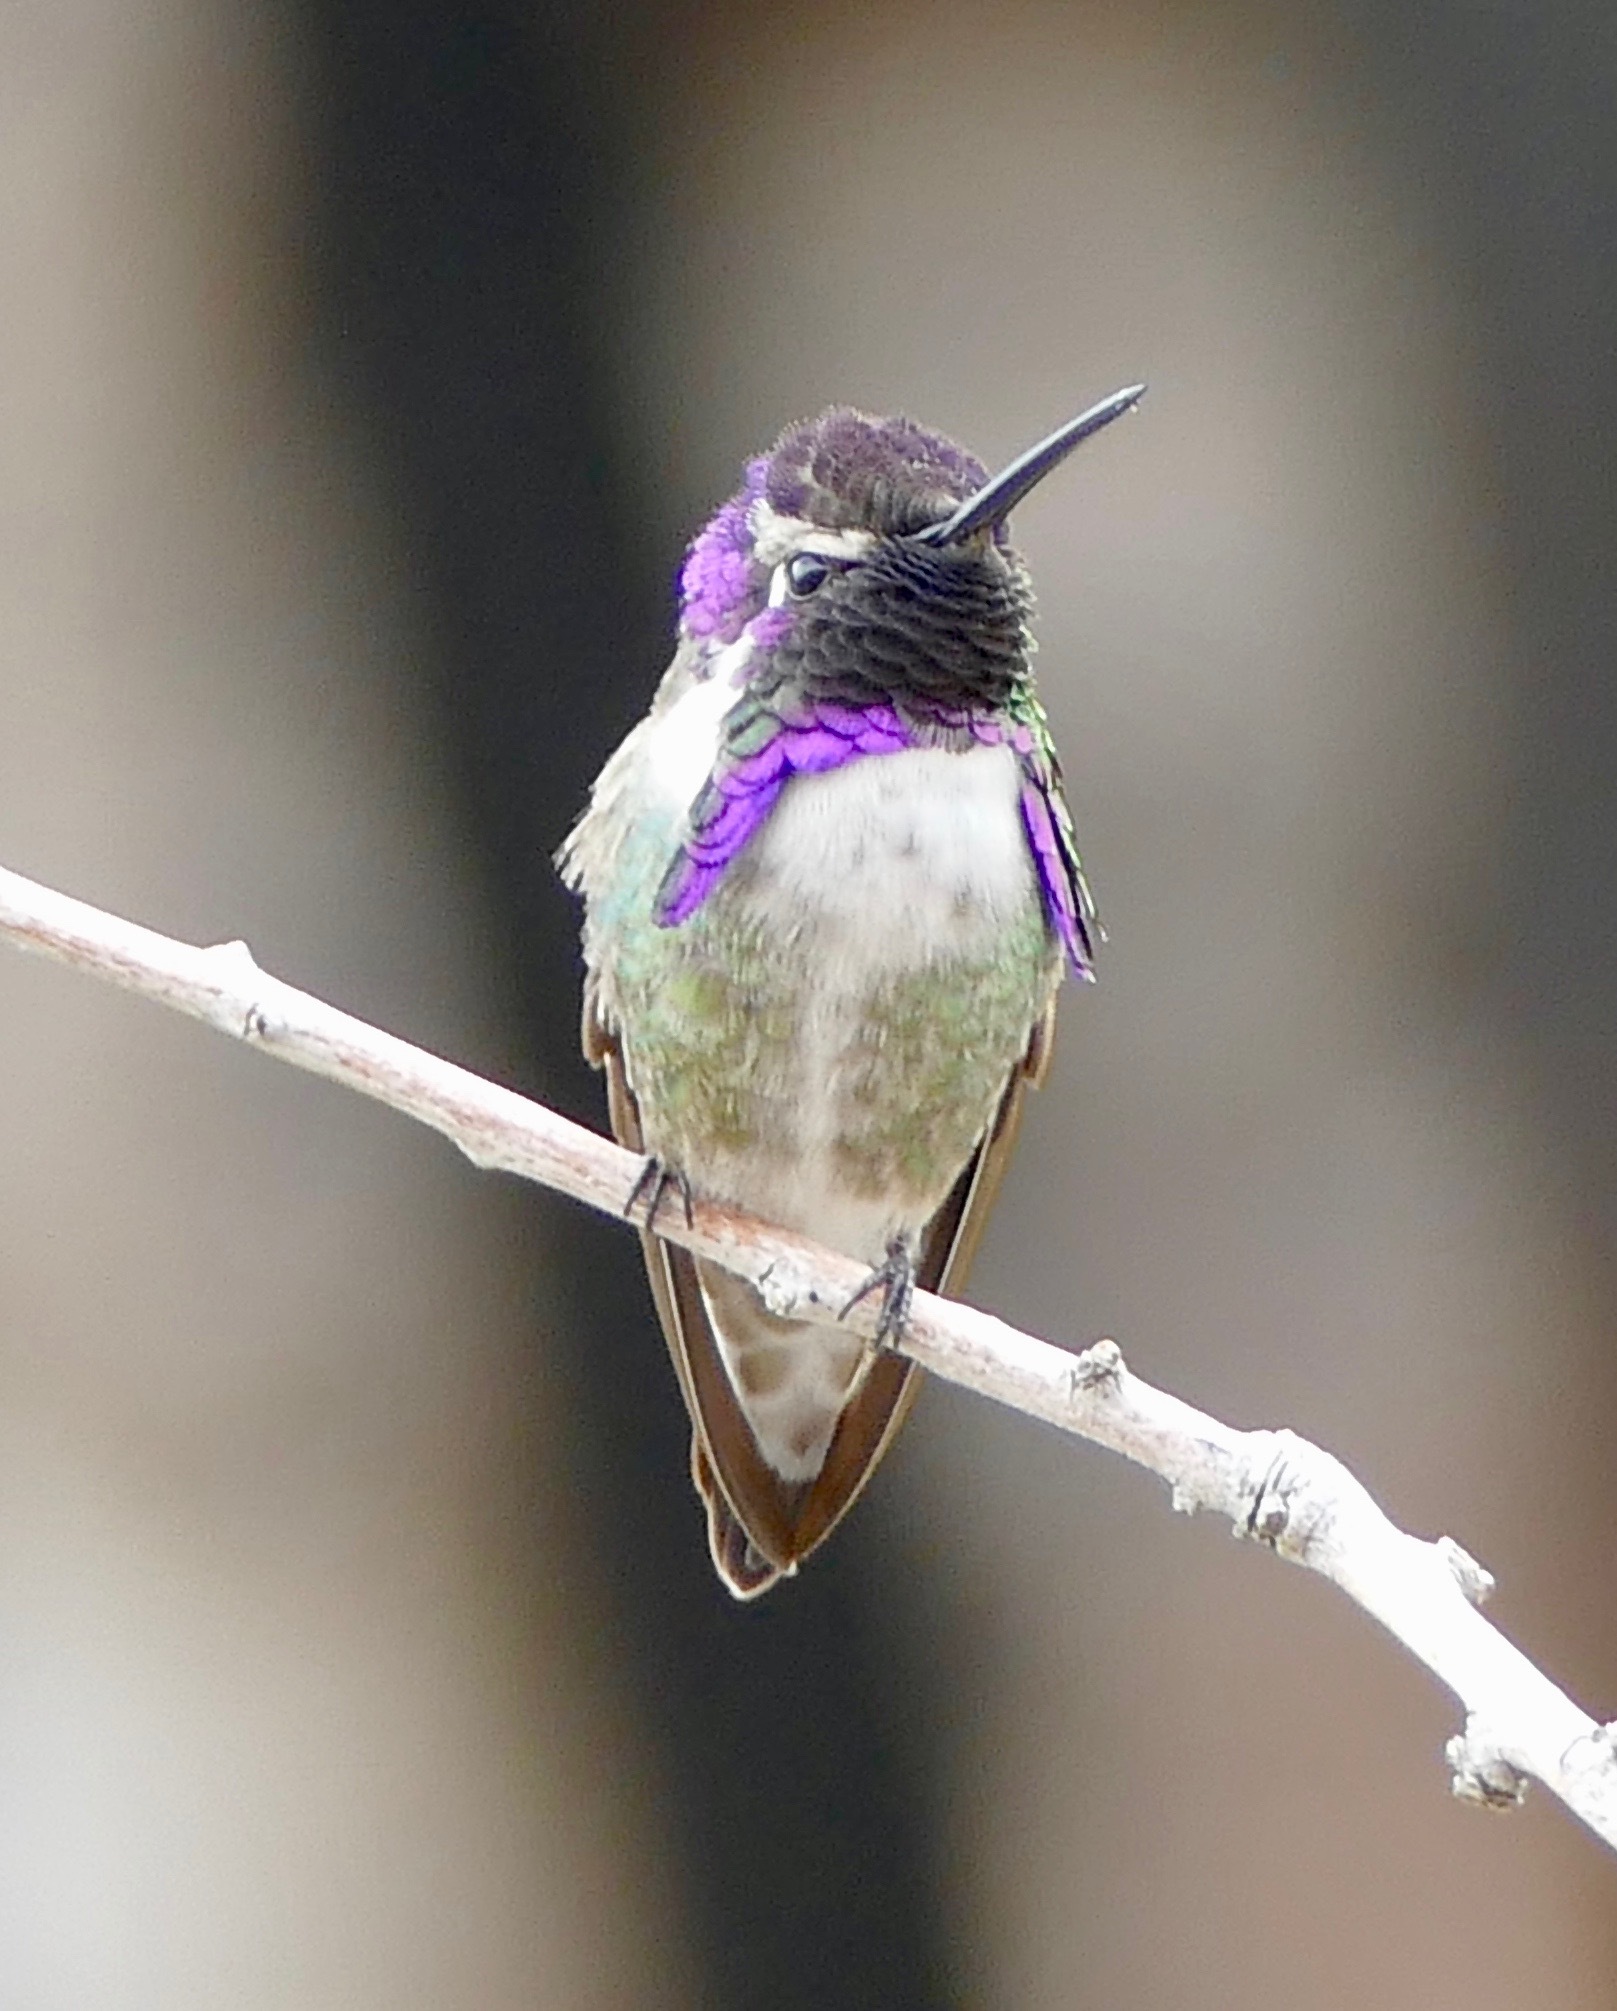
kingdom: Animalia
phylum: Chordata
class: Aves
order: Apodiformes
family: Trochilidae
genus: Calypte
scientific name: Calypte costae
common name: Costa's hummingbird
